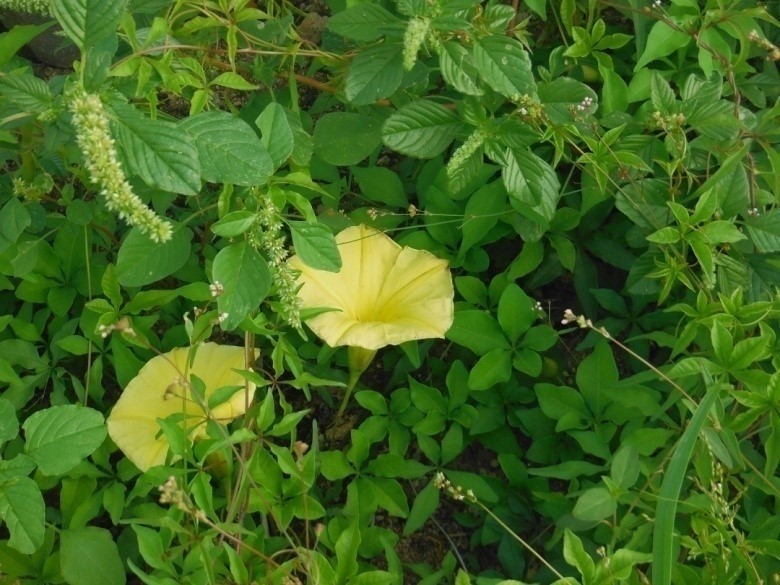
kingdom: Plantae
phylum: Tracheophyta
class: Magnoliopsida
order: Solanales
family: Convolvulaceae
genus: Distimake
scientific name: Distimake aureus
